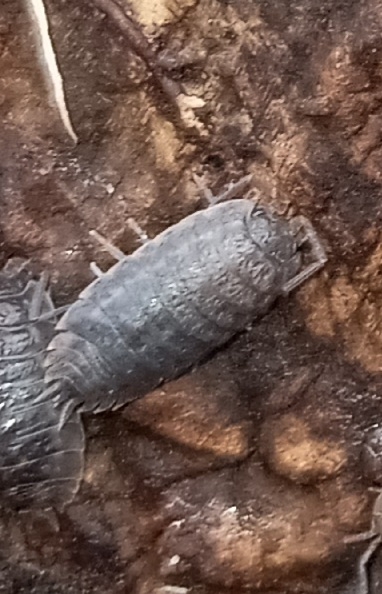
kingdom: Animalia
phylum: Arthropoda
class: Malacostraca
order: Isopoda
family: Porcellionidae
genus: Porcellio
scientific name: Porcellio laevis
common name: Swift woodlouse
